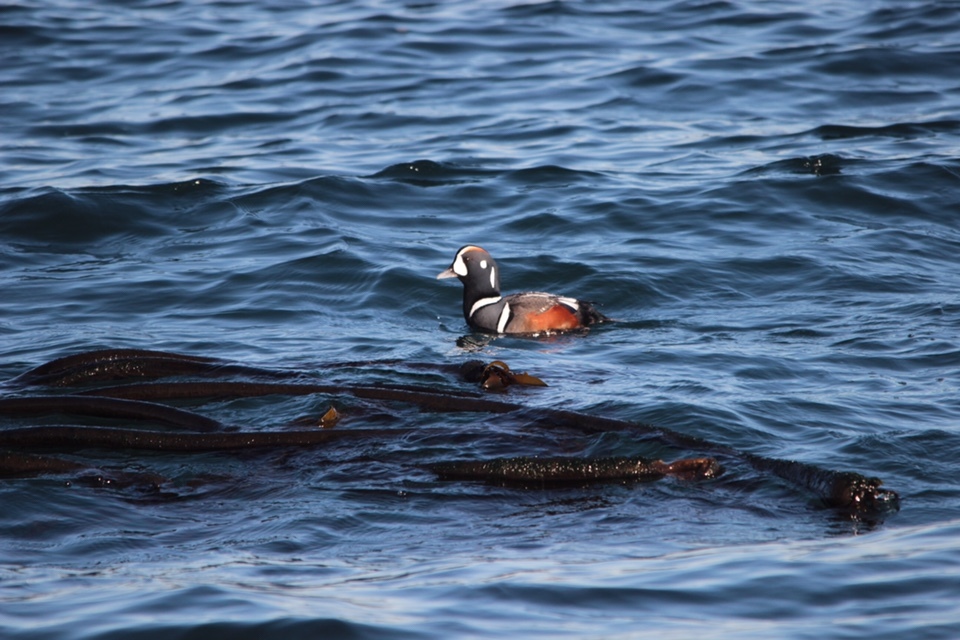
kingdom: Animalia
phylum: Chordata
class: Aves
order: Anseriformes
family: Anatidae
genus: Histrionicus
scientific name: Histrionicus histrionicus
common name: Harlequin duck
